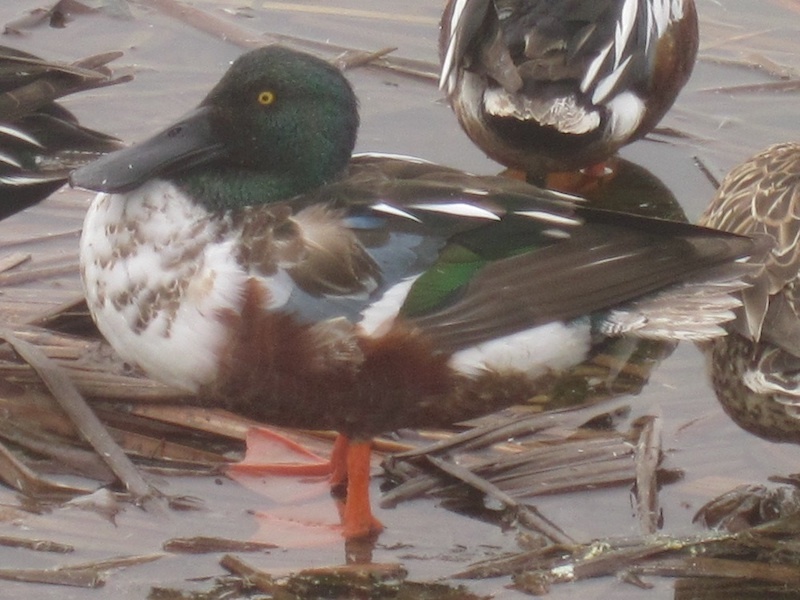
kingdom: Animalia
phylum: Chordata
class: Aves
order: Anseriformes
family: Anatidae
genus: Spatula
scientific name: Spatula clypeata
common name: Northern shoveler
